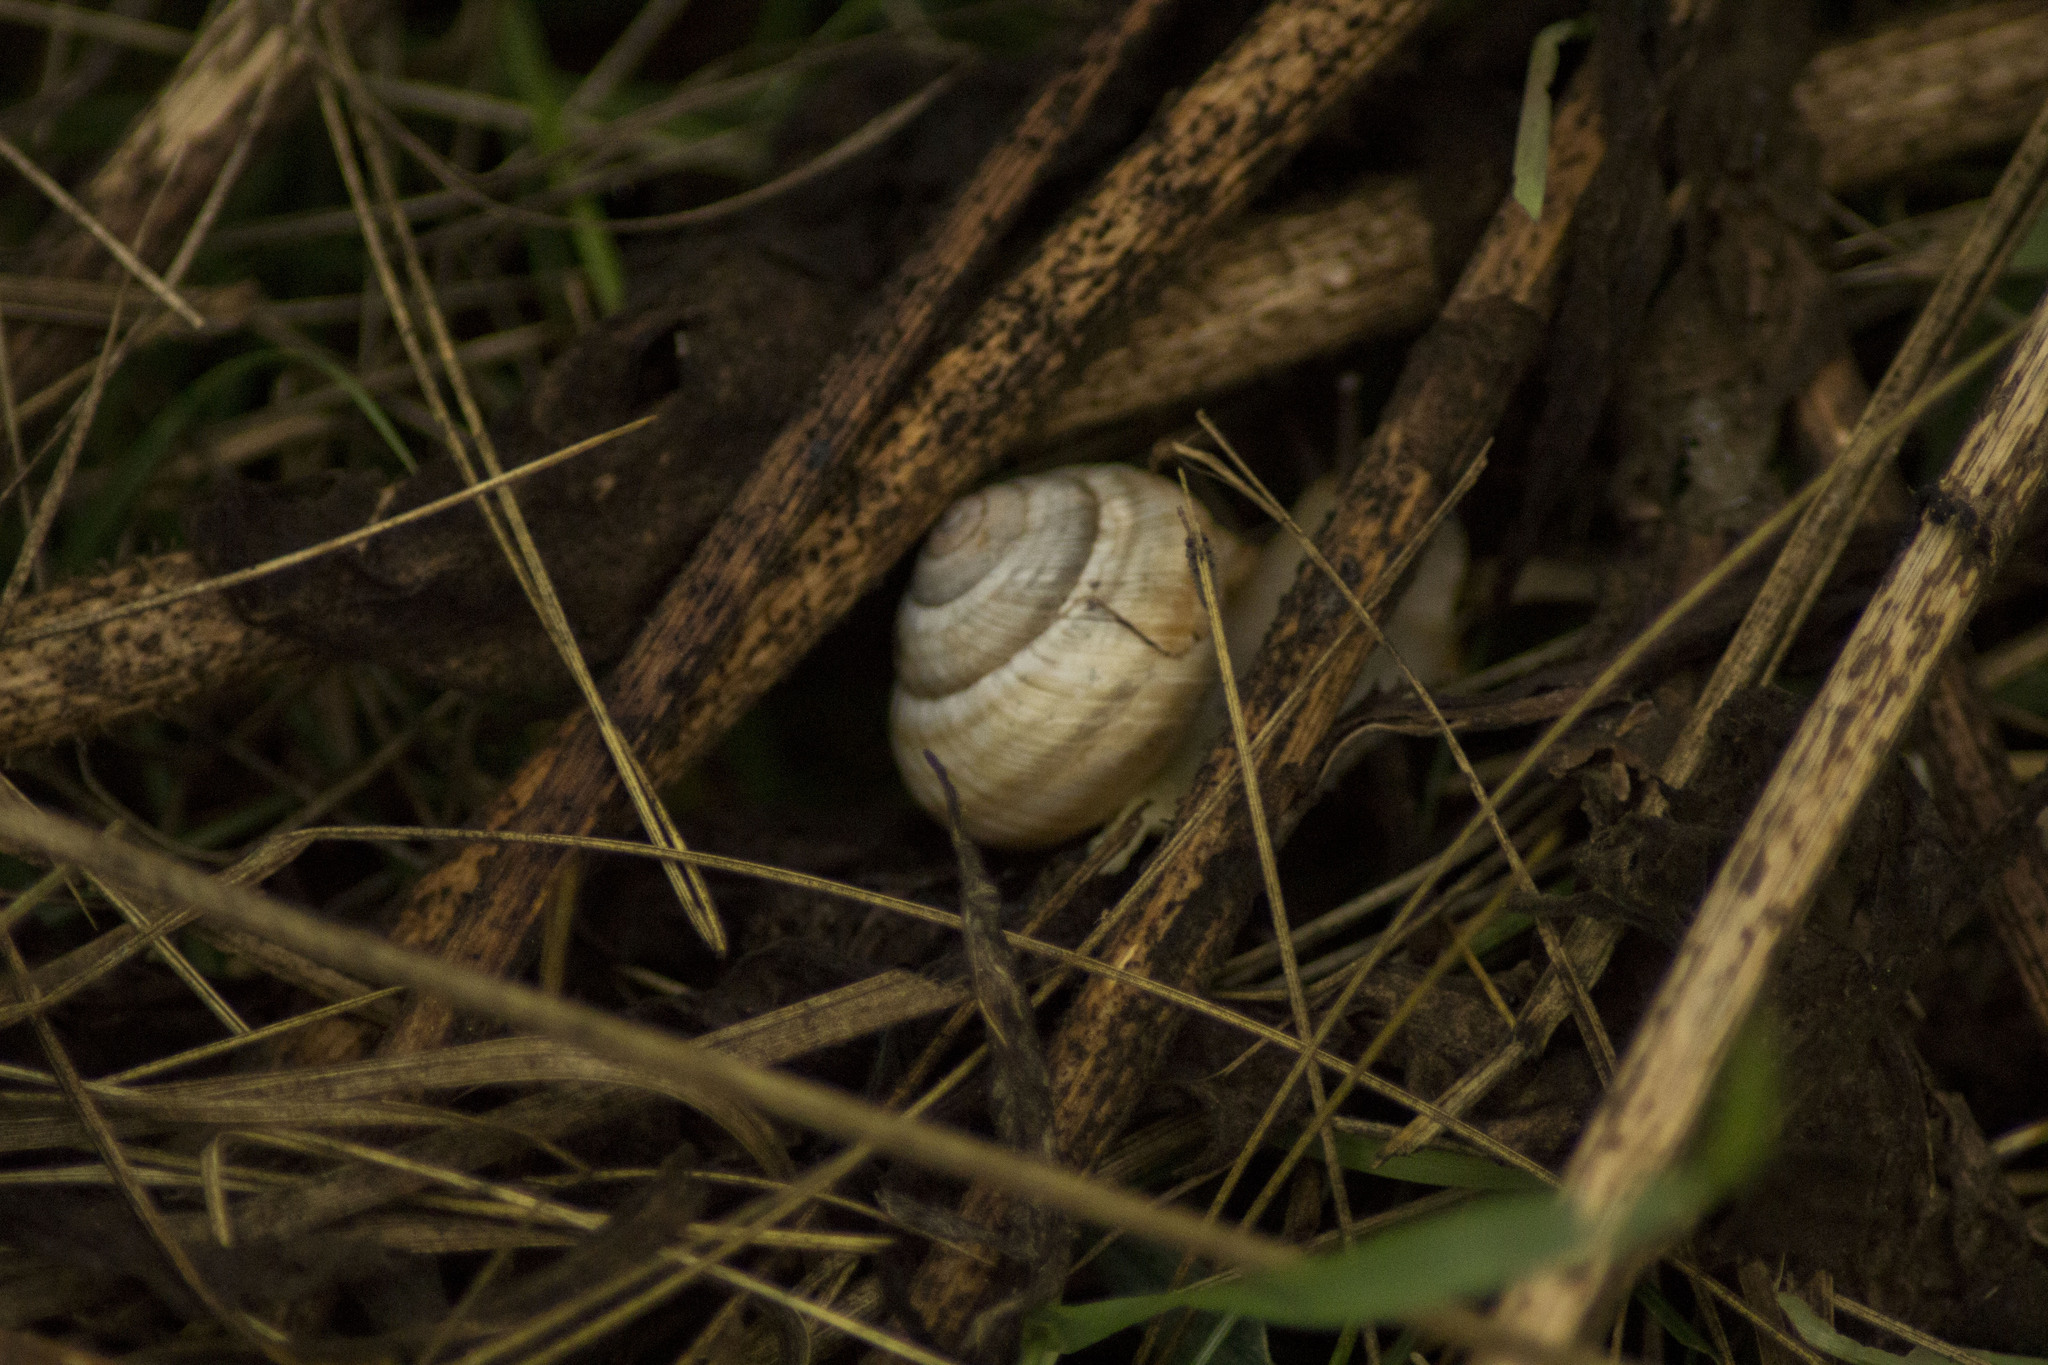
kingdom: Animalia
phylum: Mollusca
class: Gastropoda
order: Stylommatophora
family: Helicidae
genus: Caucasotachea
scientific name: Caucasotachea vindobonensis
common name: European helicid land snail
